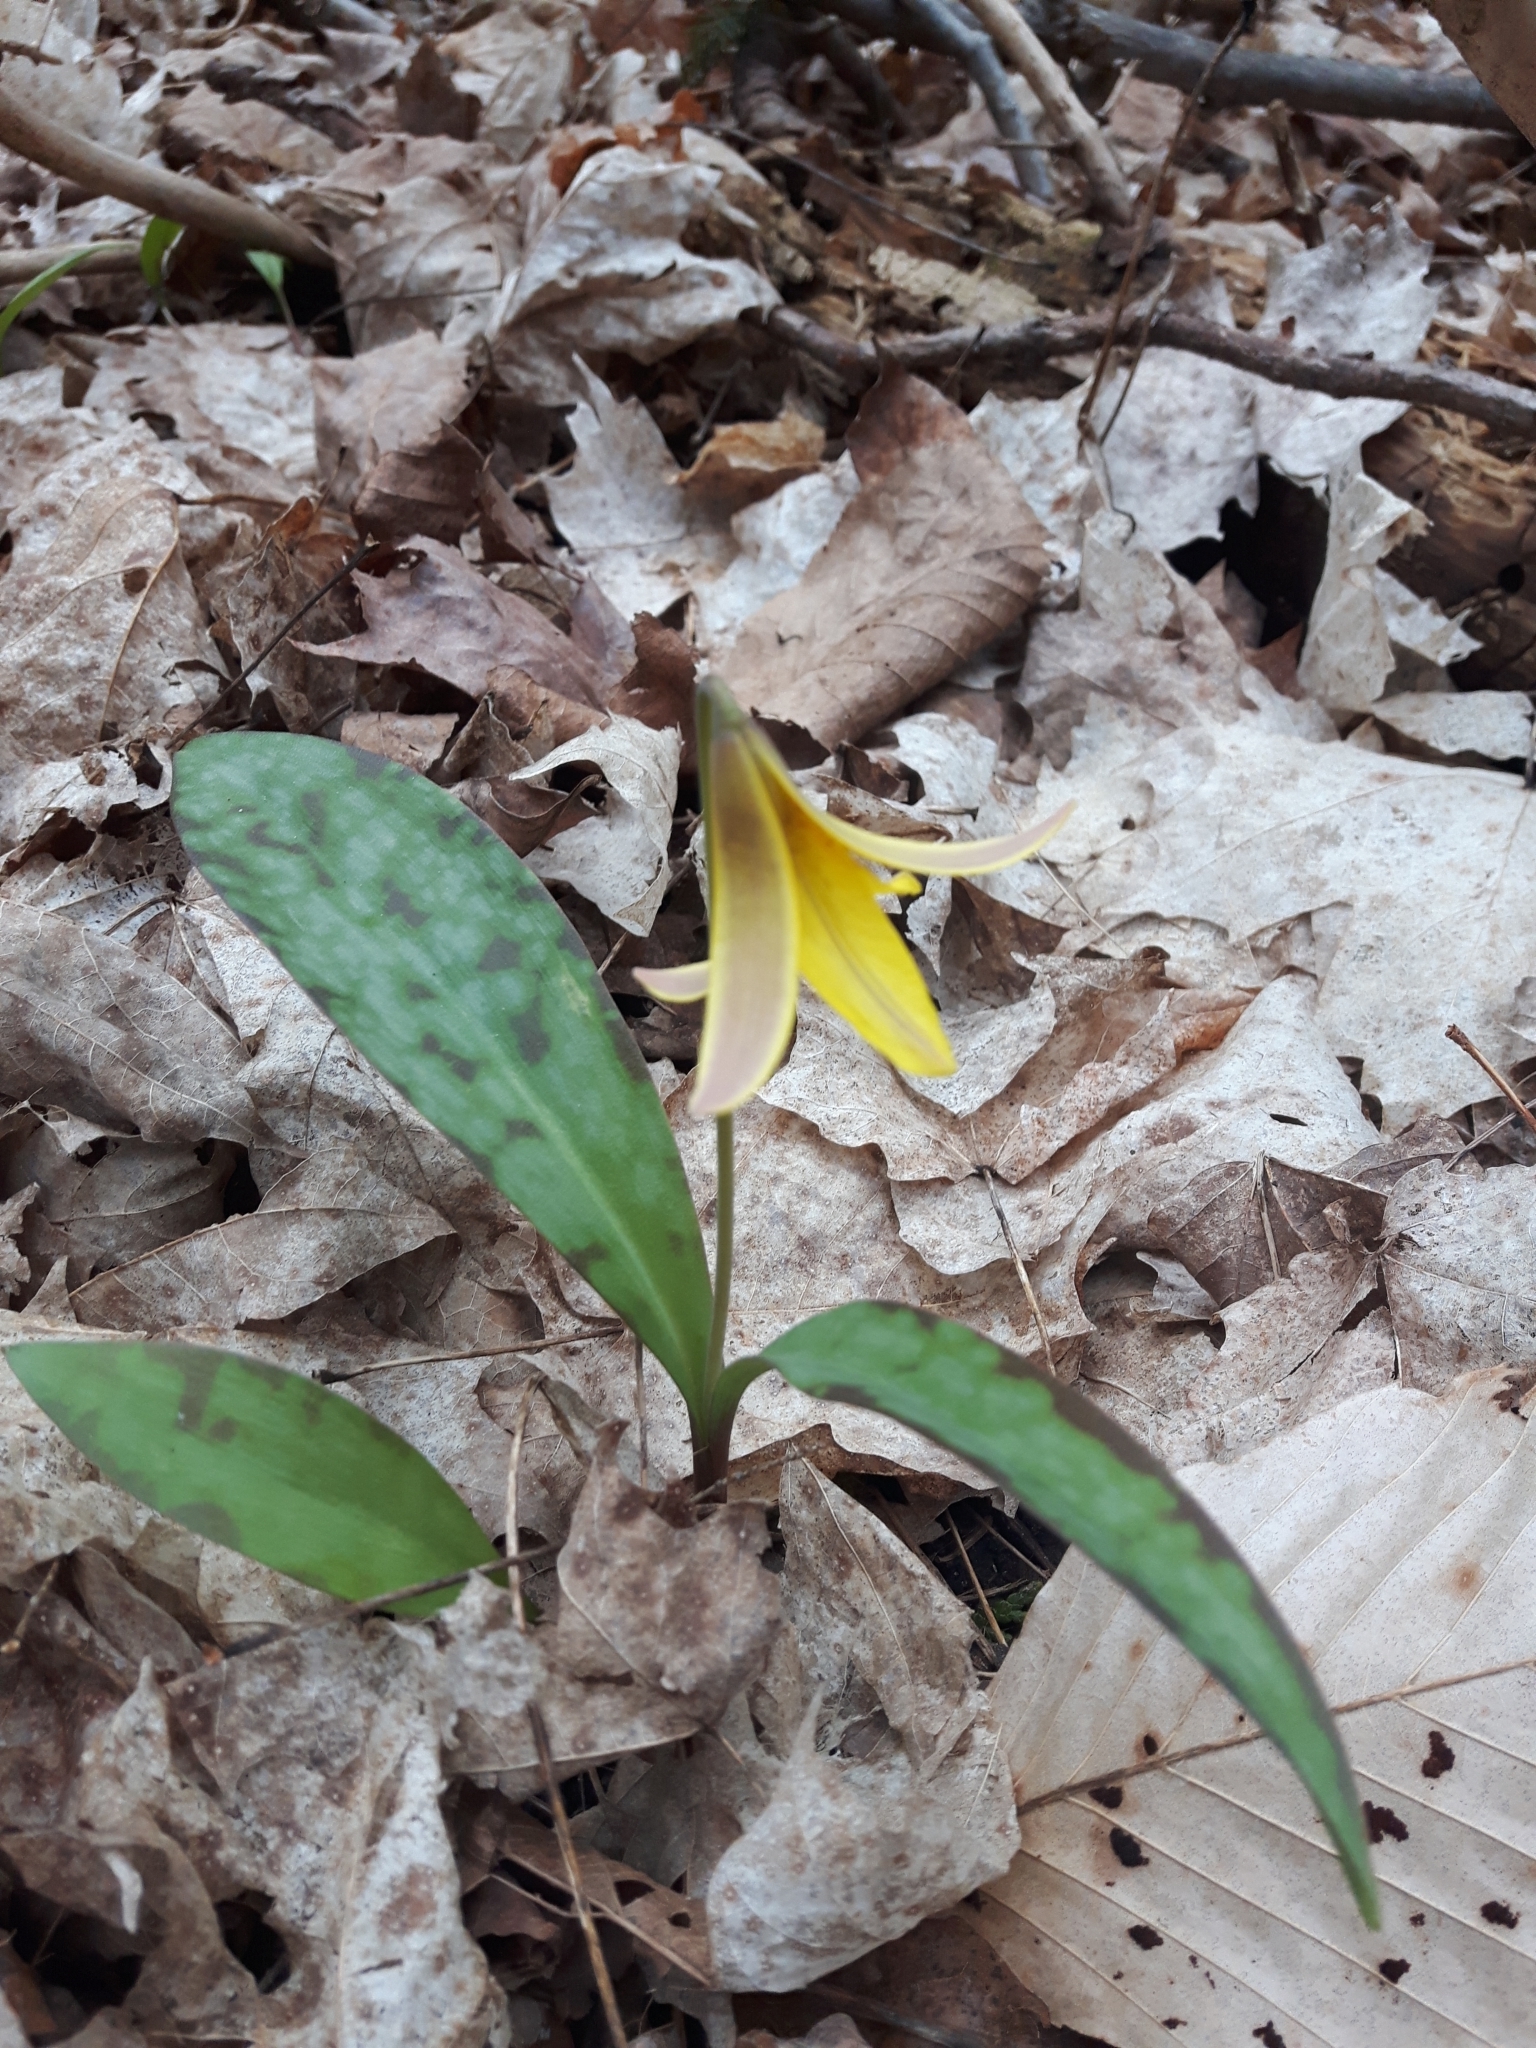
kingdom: Plantae
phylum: Tracheophyta
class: Liliopsida
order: Liliales
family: Liliaceae
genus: Erythronium
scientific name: Erythronium americanum
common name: Yellow adder's-tongue
